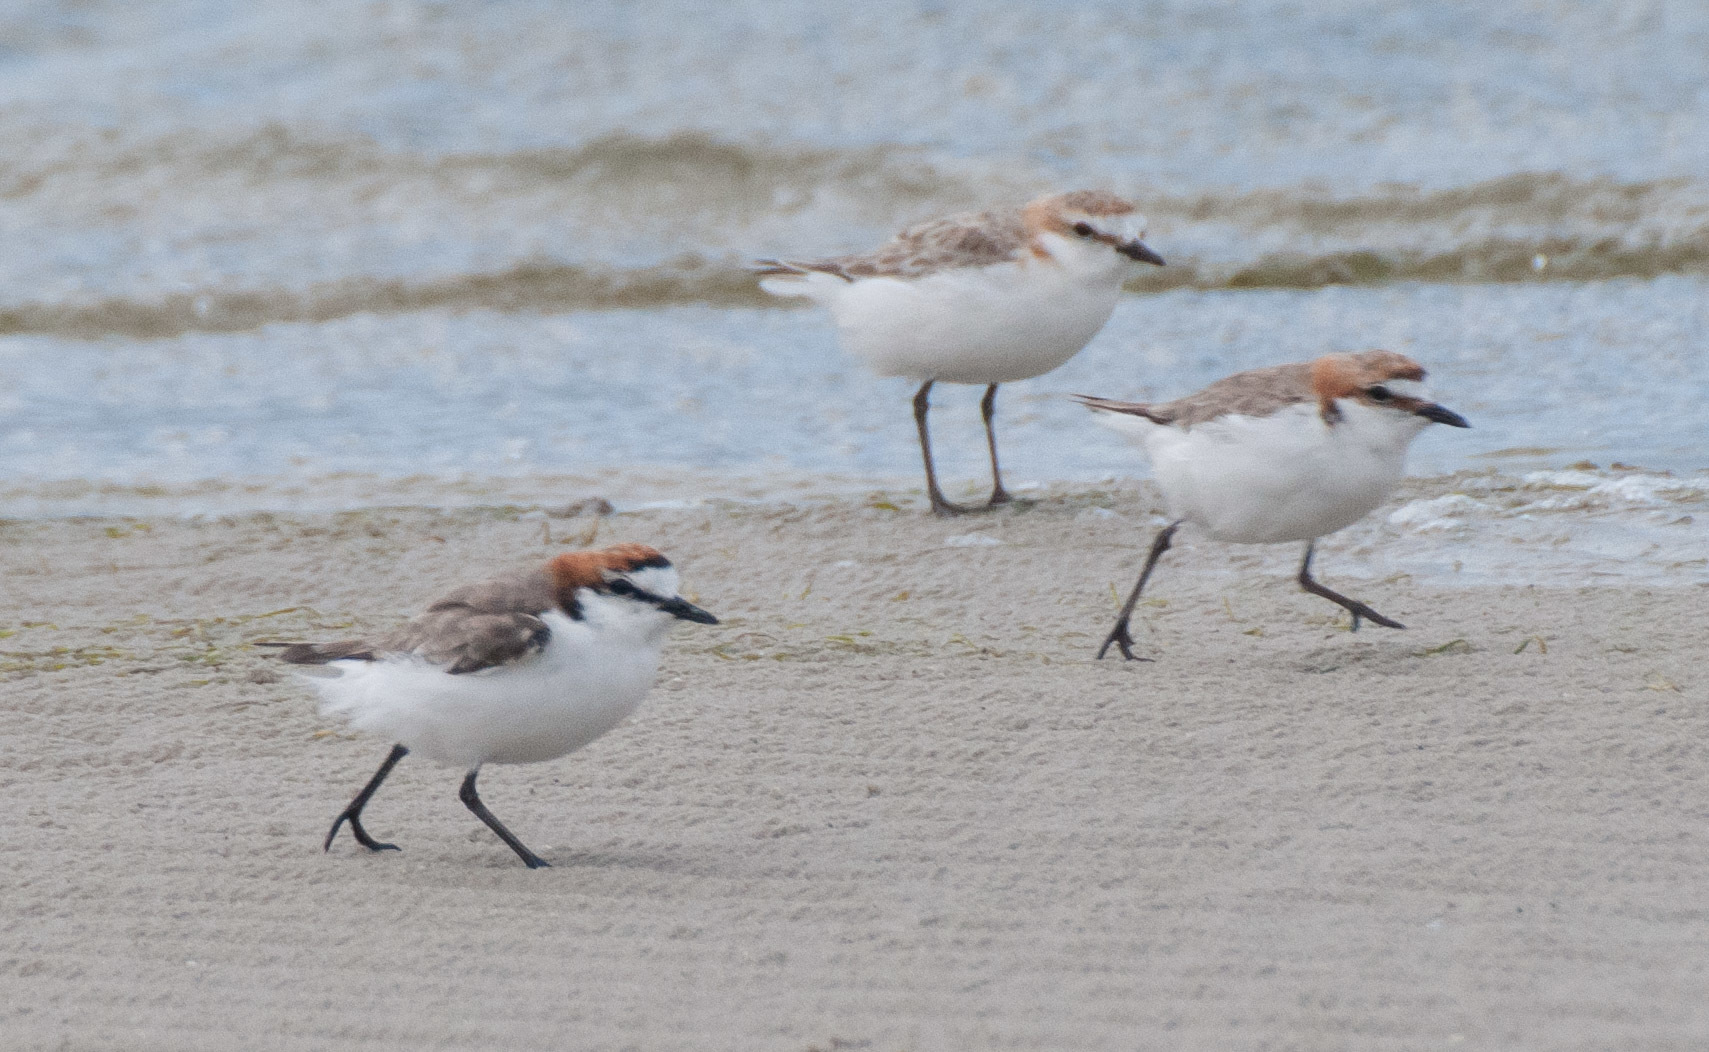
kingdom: Animalia
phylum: Chordata
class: Aves
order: Charadriiformes
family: Charadriidae
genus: Anarhynchus
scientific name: Anarhynchus
